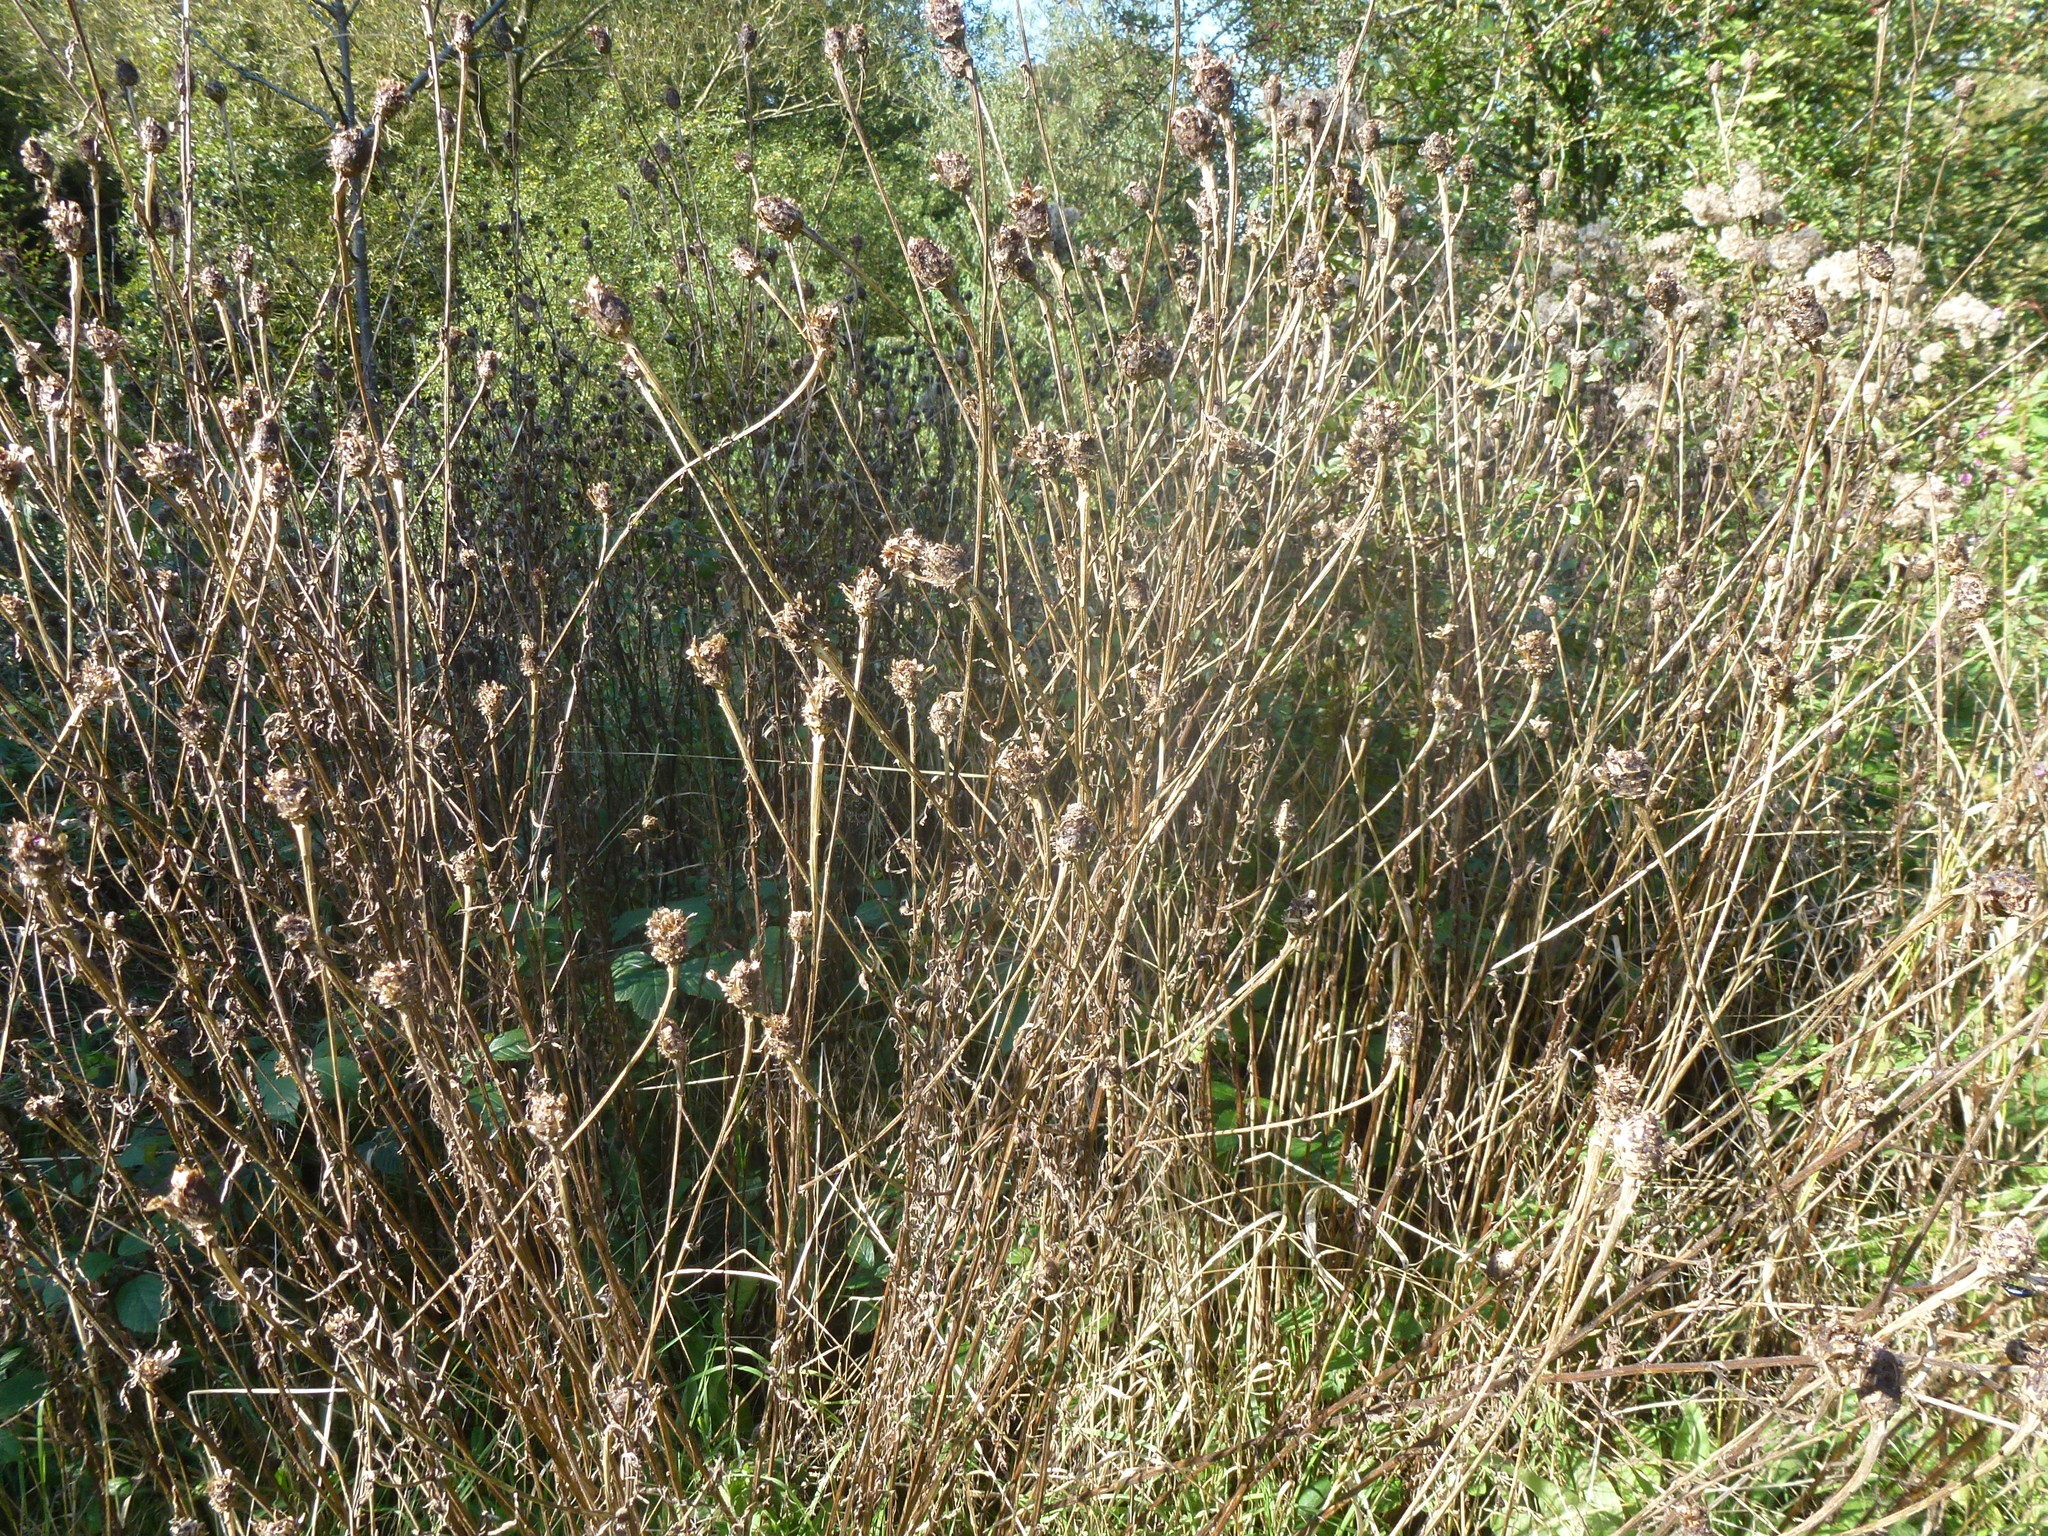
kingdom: Plantae
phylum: Tracheophyta
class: Magnoliopsida
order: Asterales
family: Asteraceae
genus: Centaurea
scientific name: Centaurea nigra
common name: Lesser knapweed
